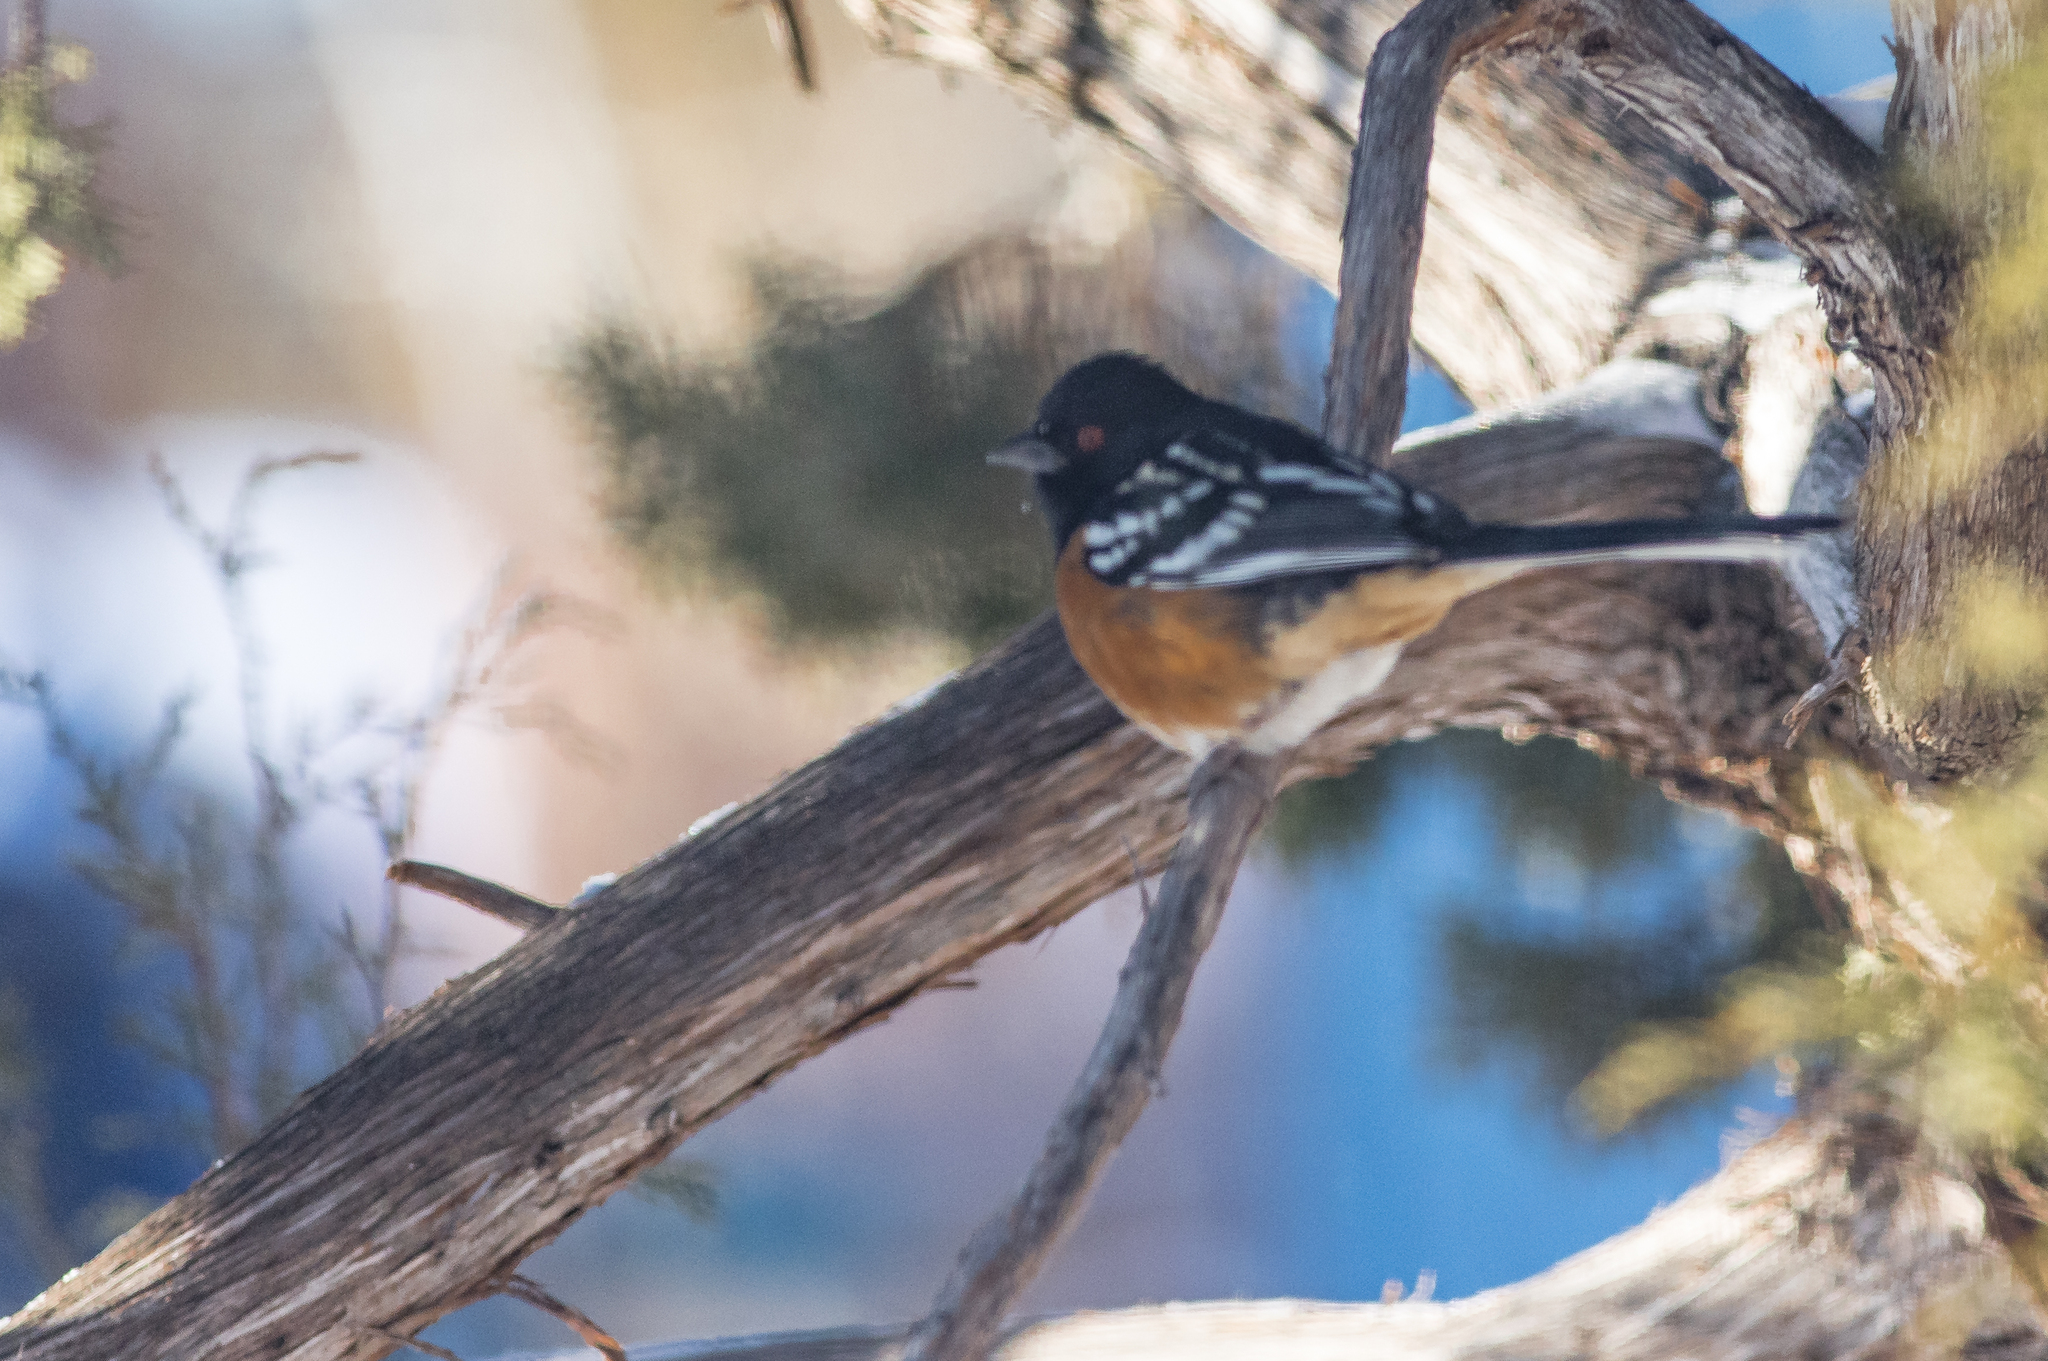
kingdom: Animalia
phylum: Chordata
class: Aves
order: Passeriformes
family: Passerellidae
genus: Pipilo
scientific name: Pipilo maculatus
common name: Spotted towhee
